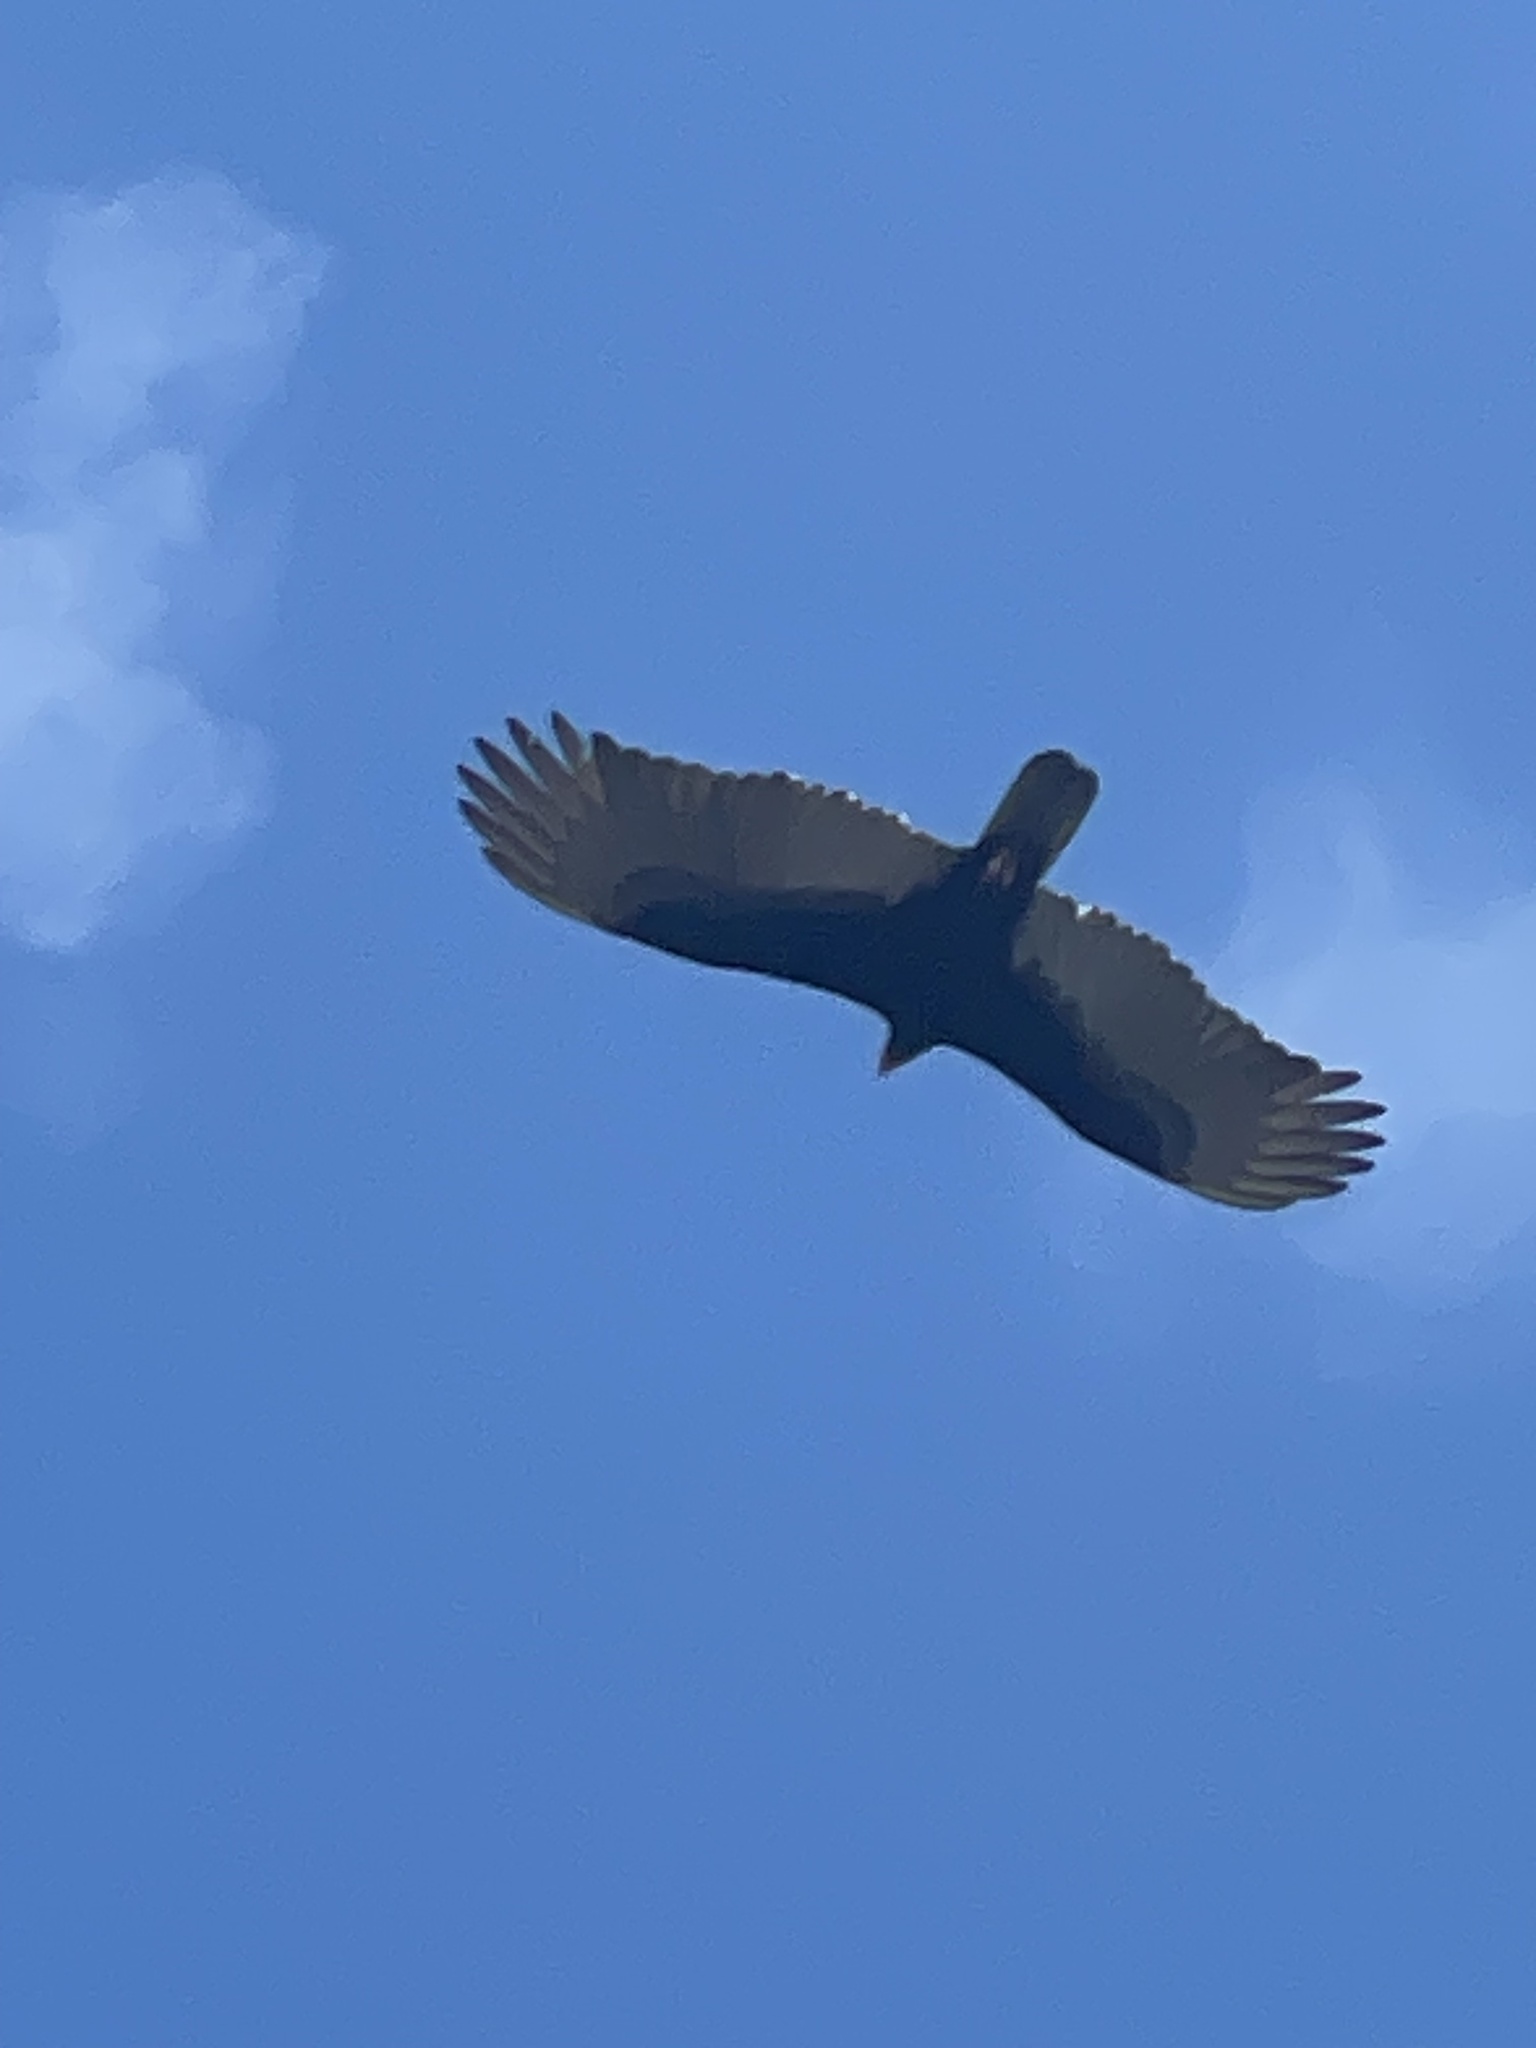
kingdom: Animalia
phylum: Chordata
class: Aves
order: Accipitriformes
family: Cathartidae
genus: Cathartes
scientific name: Cathartes aura
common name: Turkey vulture
